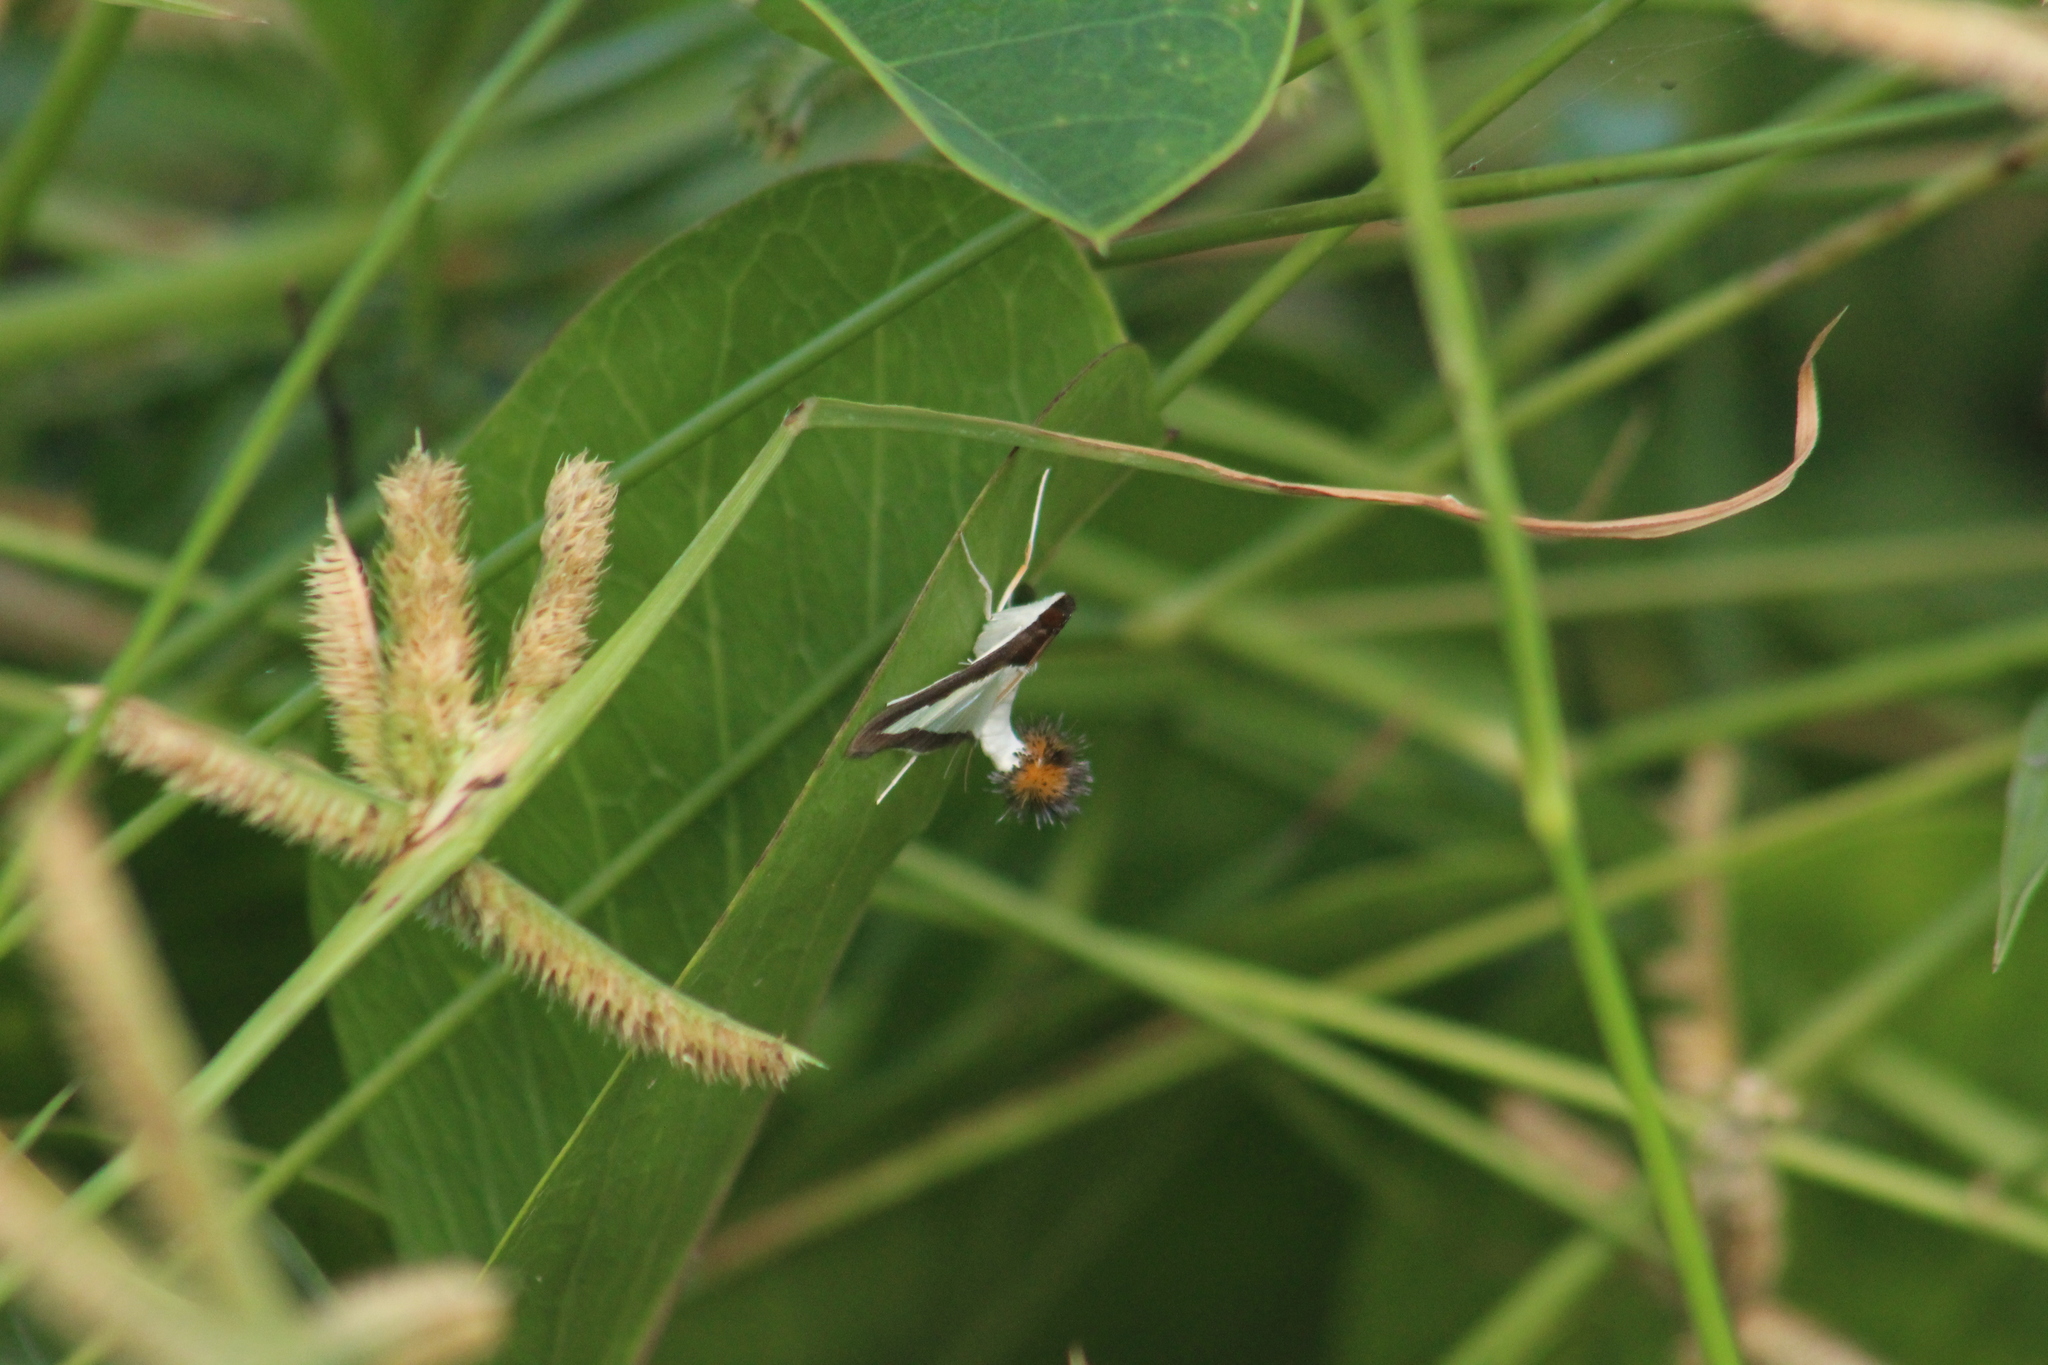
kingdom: Animalia
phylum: Arthropoda
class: Insecta
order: Lepidoptera
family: Crambidae
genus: Diaphania
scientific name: Diaphania hyalinata
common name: Melonworm
